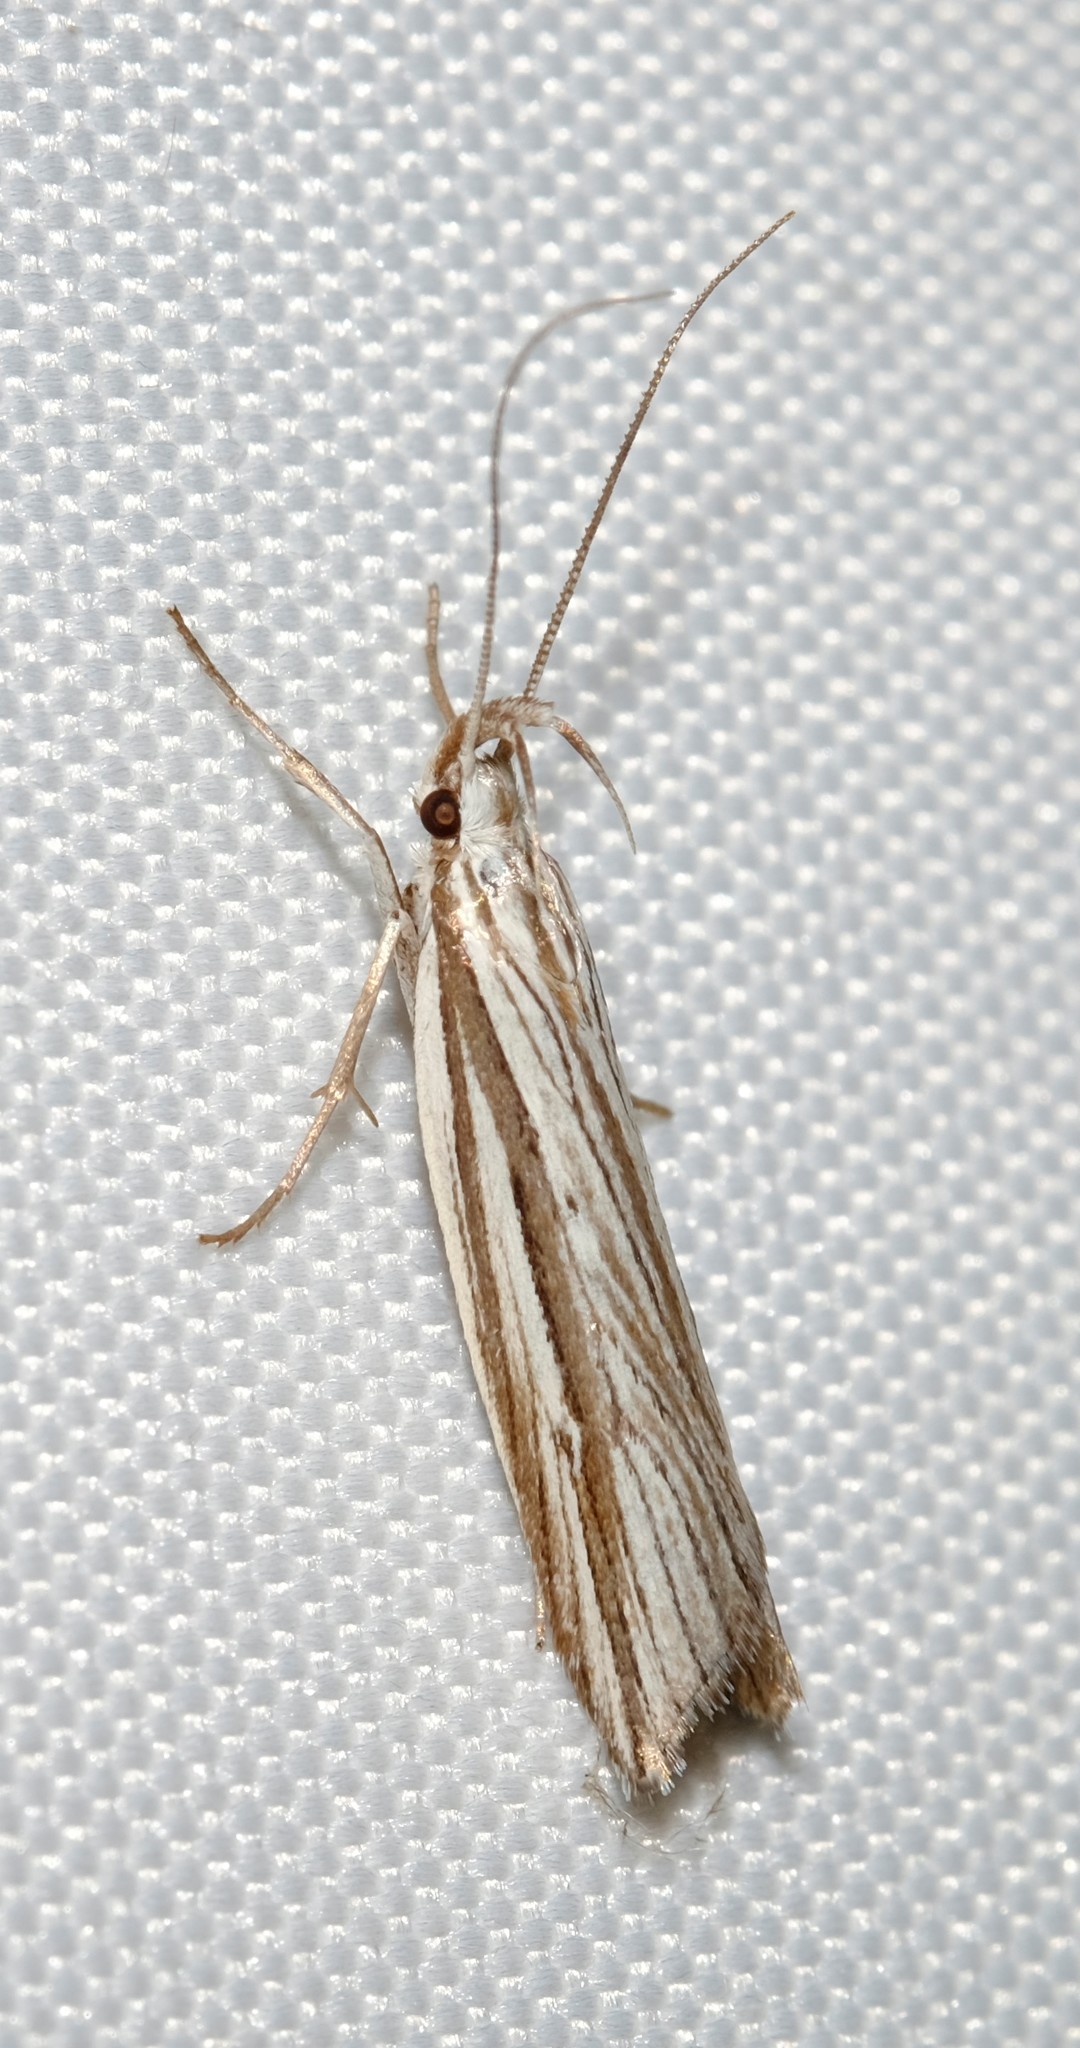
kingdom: Animalia
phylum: Arthropoda
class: Insecta
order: Lepidoptera
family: Xyloryctidae
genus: Bida
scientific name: Bida radiosella
